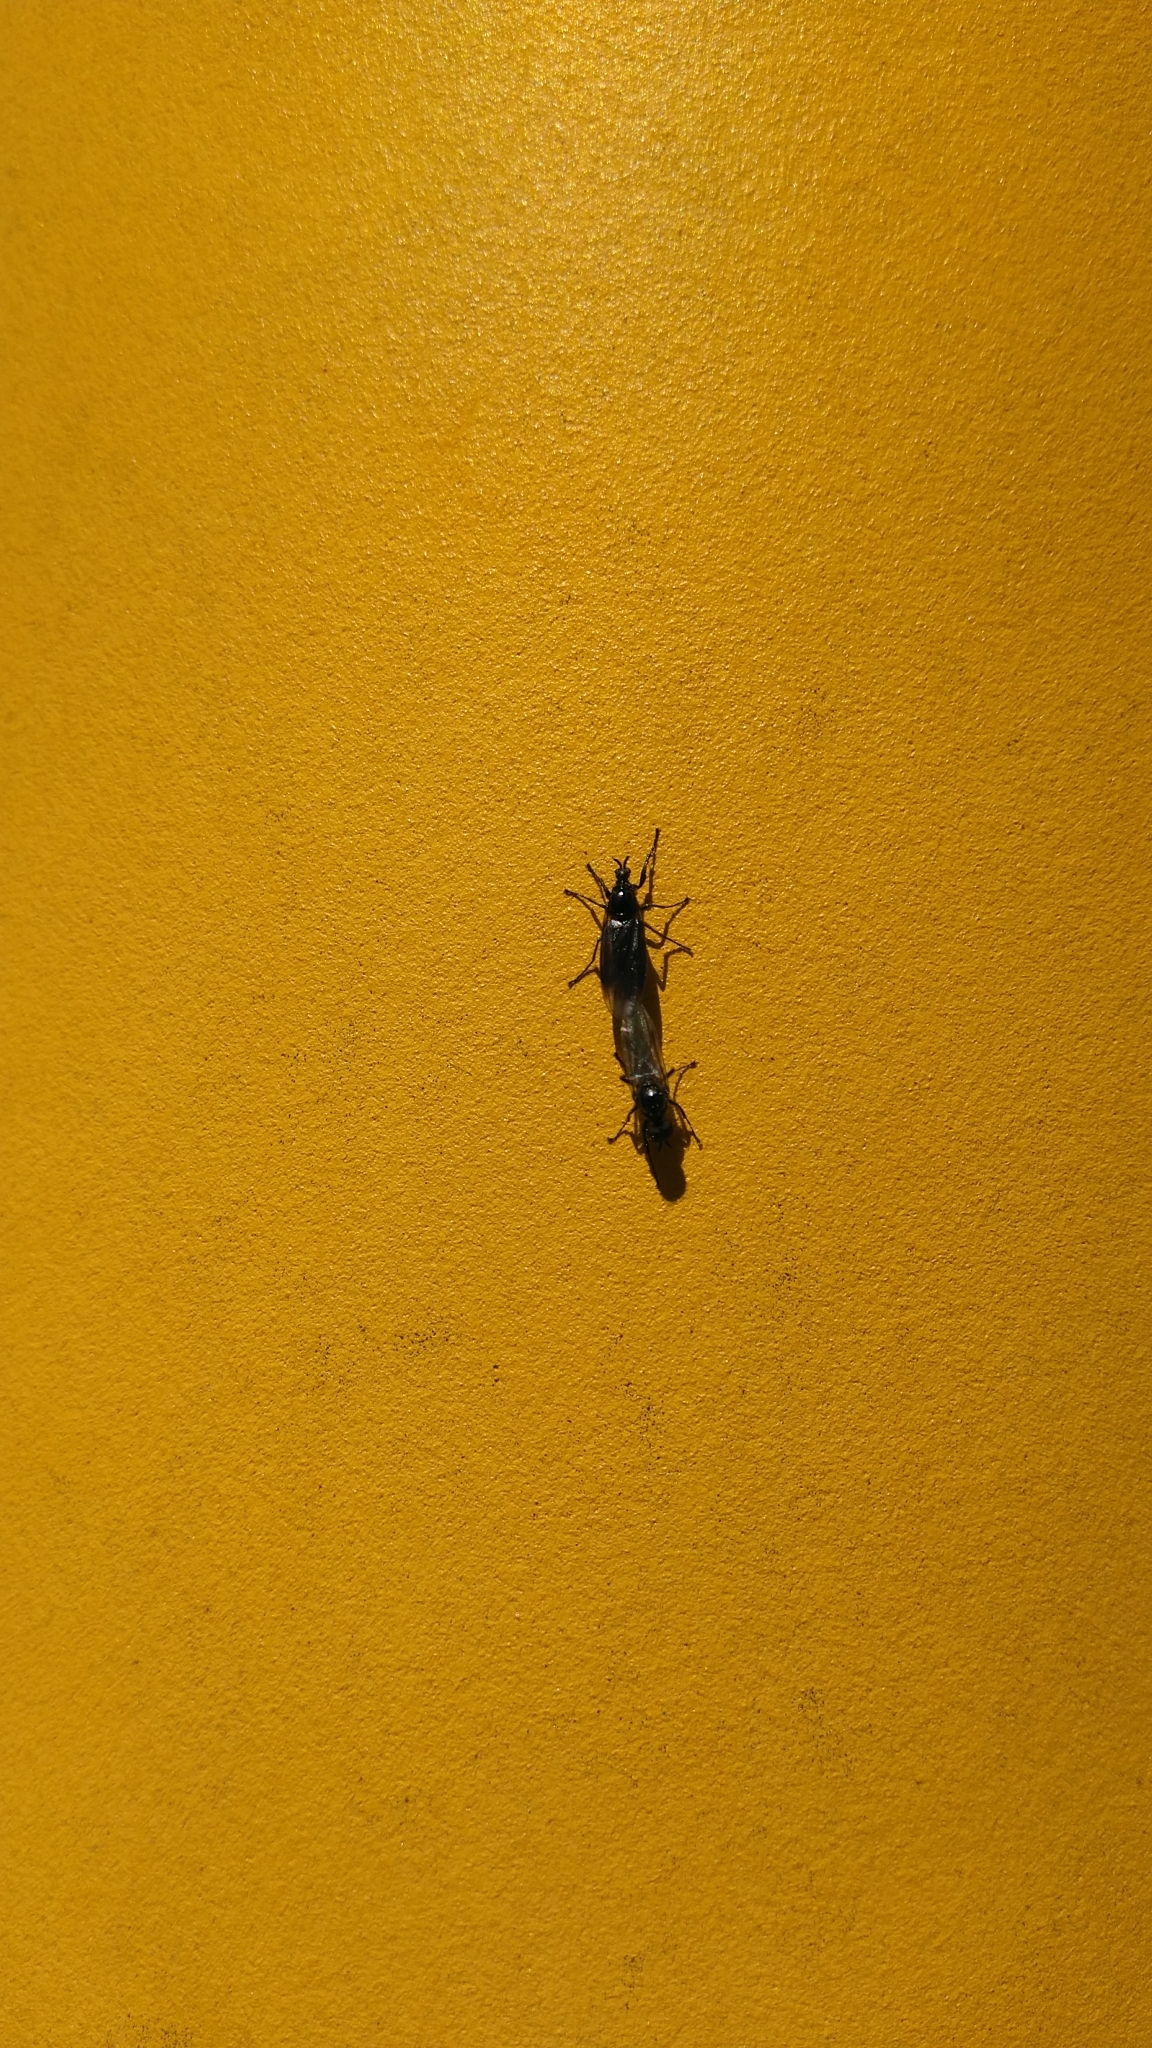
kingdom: Animalia
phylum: Arthropoda
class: Insecta
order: Diptera
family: Bibionidae
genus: Dilophus
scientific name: Dilophus febrilis
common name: Fever fly
